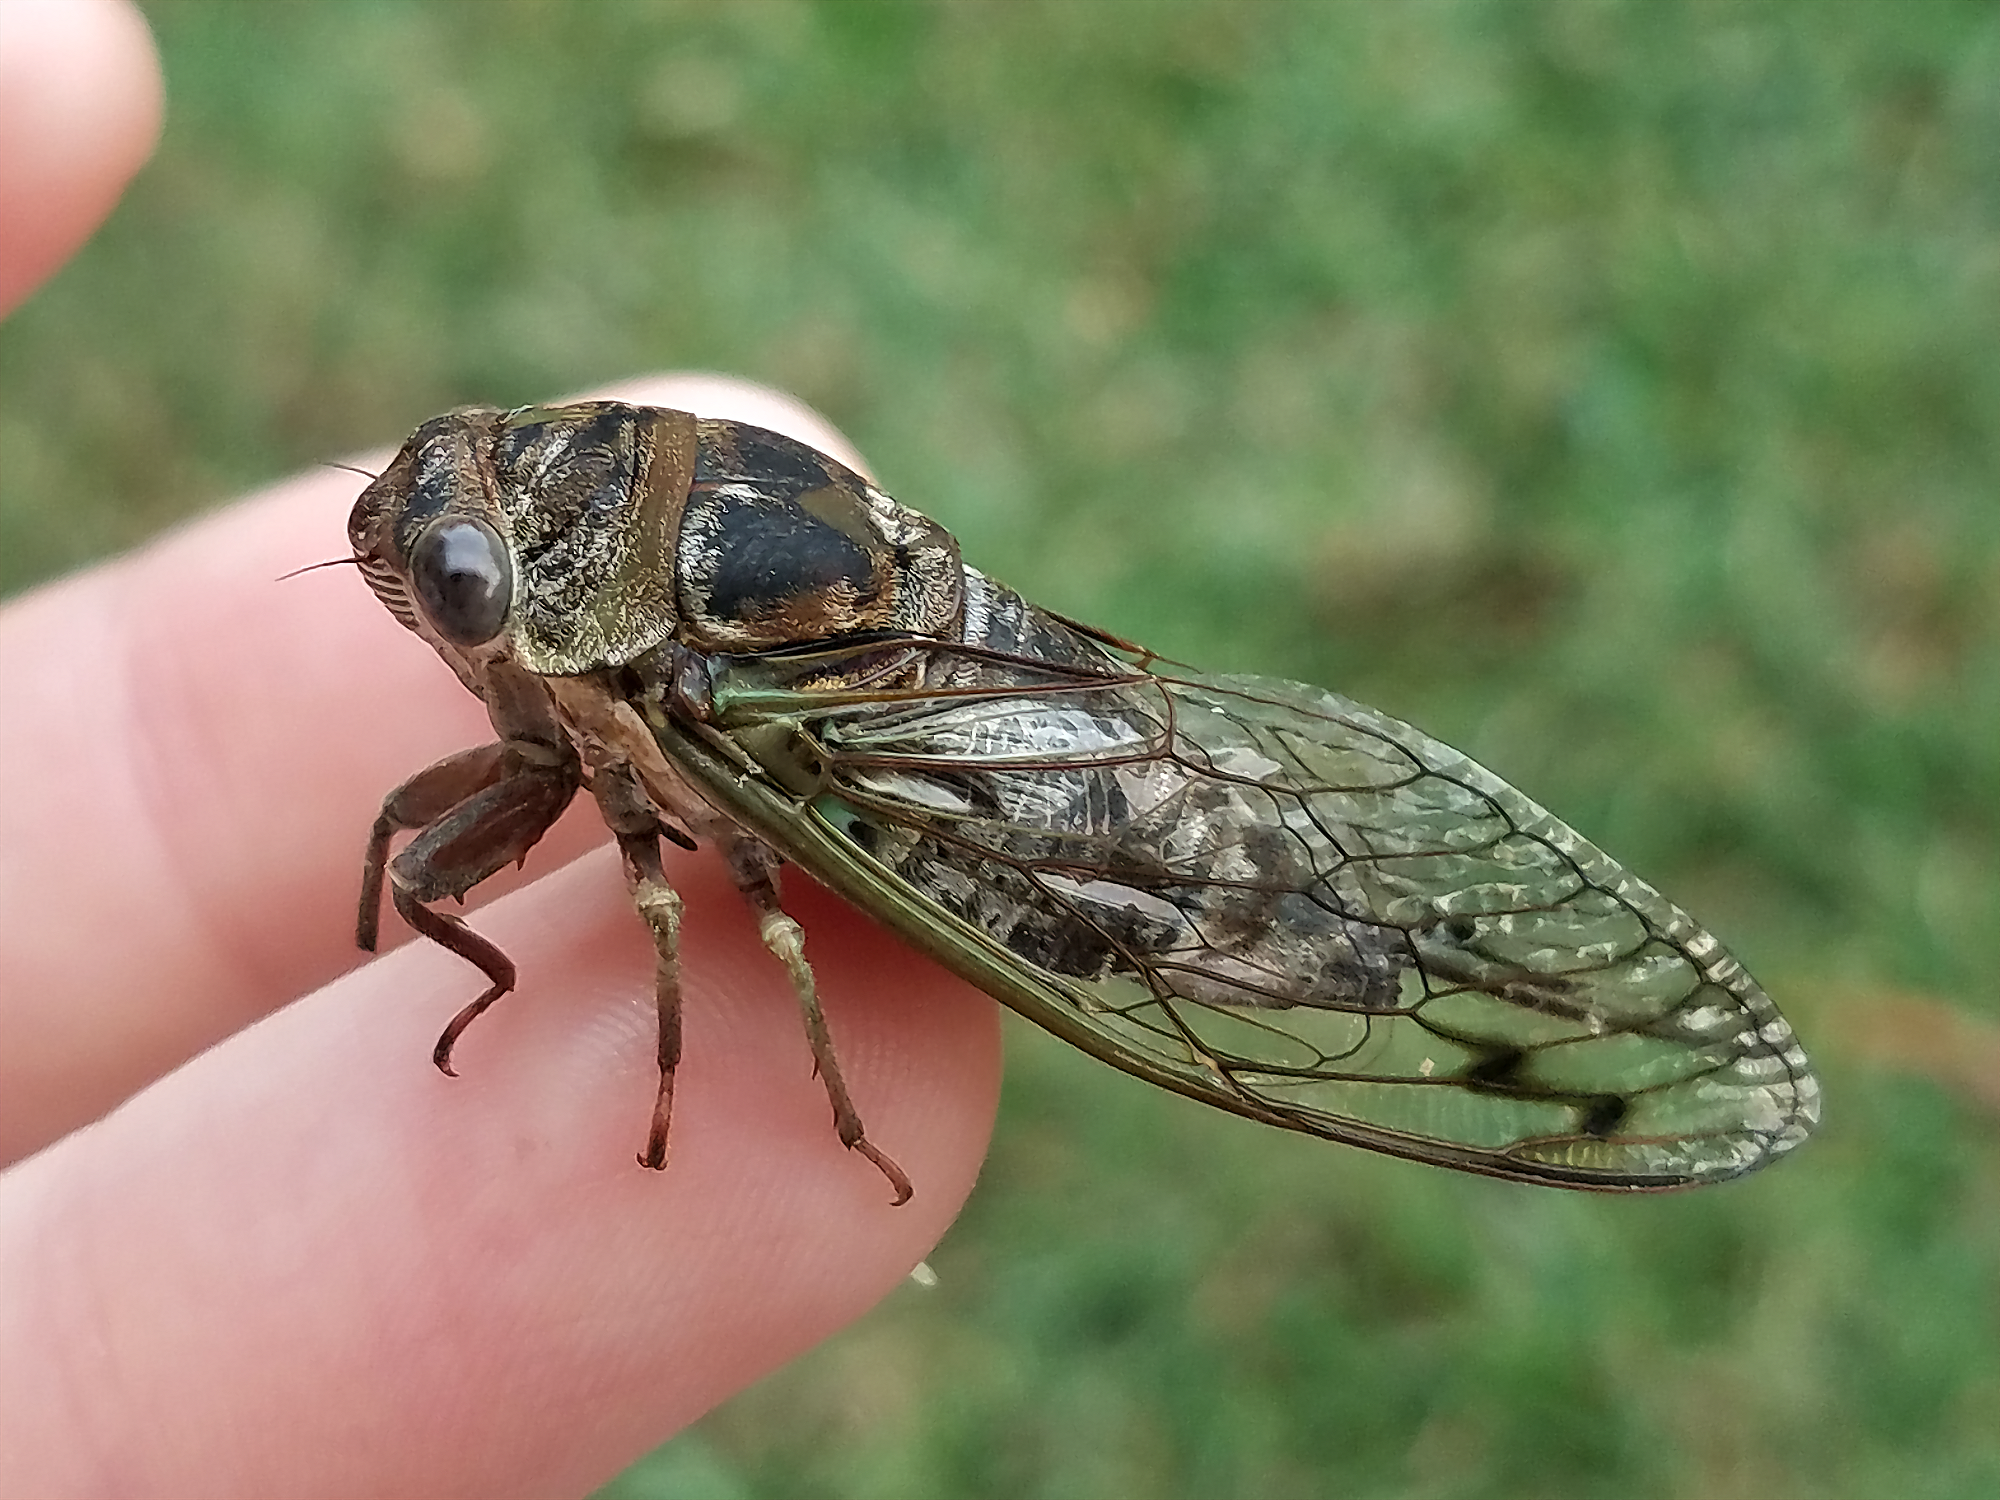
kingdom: Animalia
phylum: Arthropoda
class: Insecta
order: Hemiptera
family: Cicadidae
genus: Neotibicen
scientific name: Neotibicen davisi
